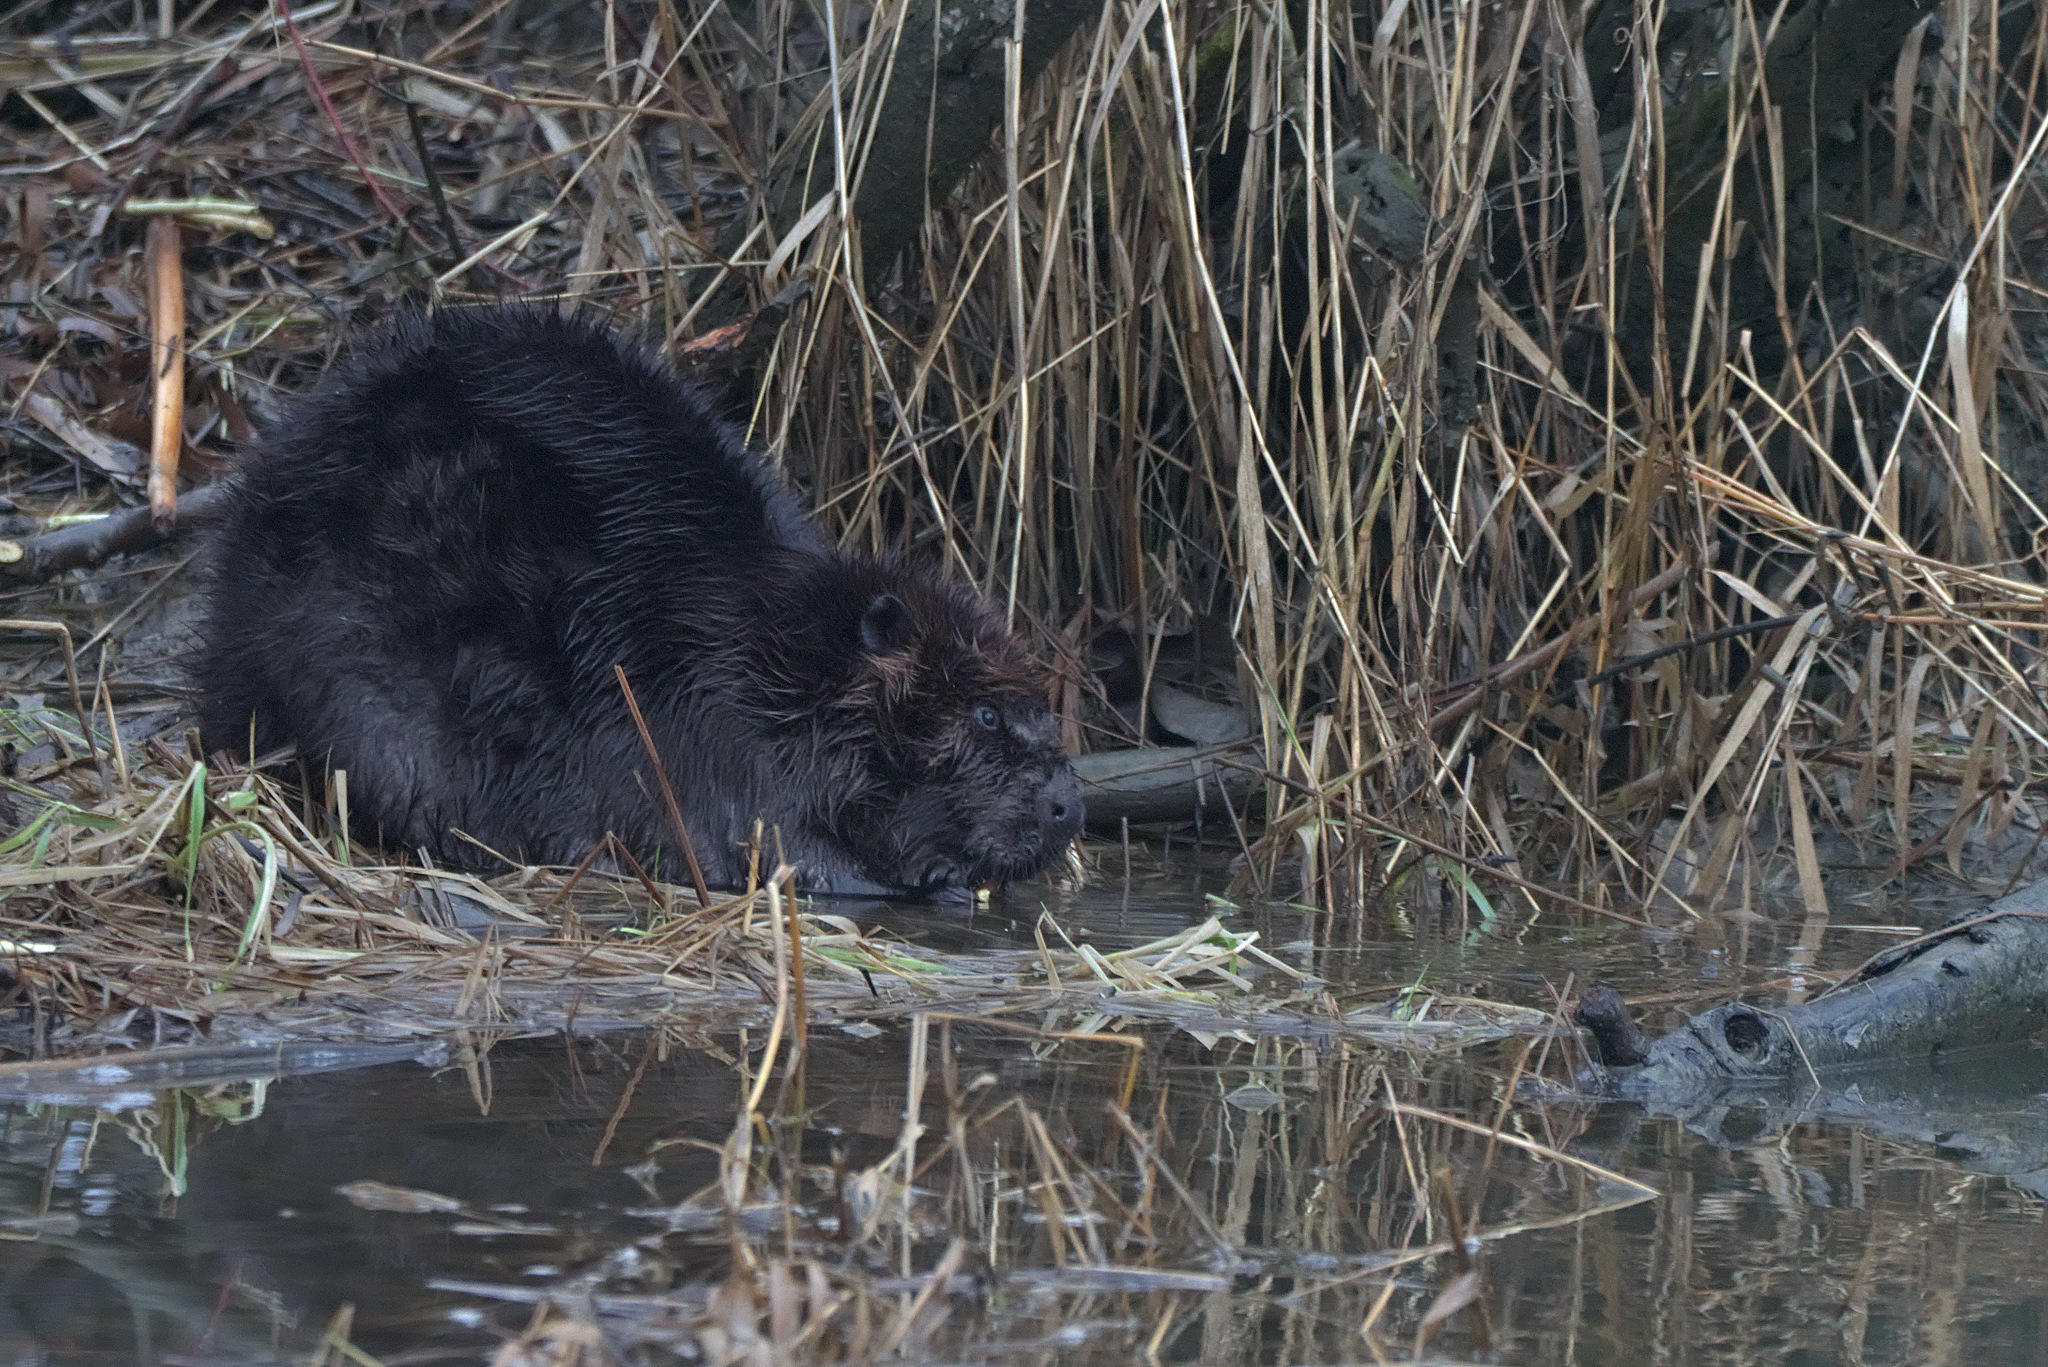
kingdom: Animalia
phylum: Chordata
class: Mammalia
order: Rodentia
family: Castoridae
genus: Castor
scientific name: Castor canadensis
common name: American beaver
